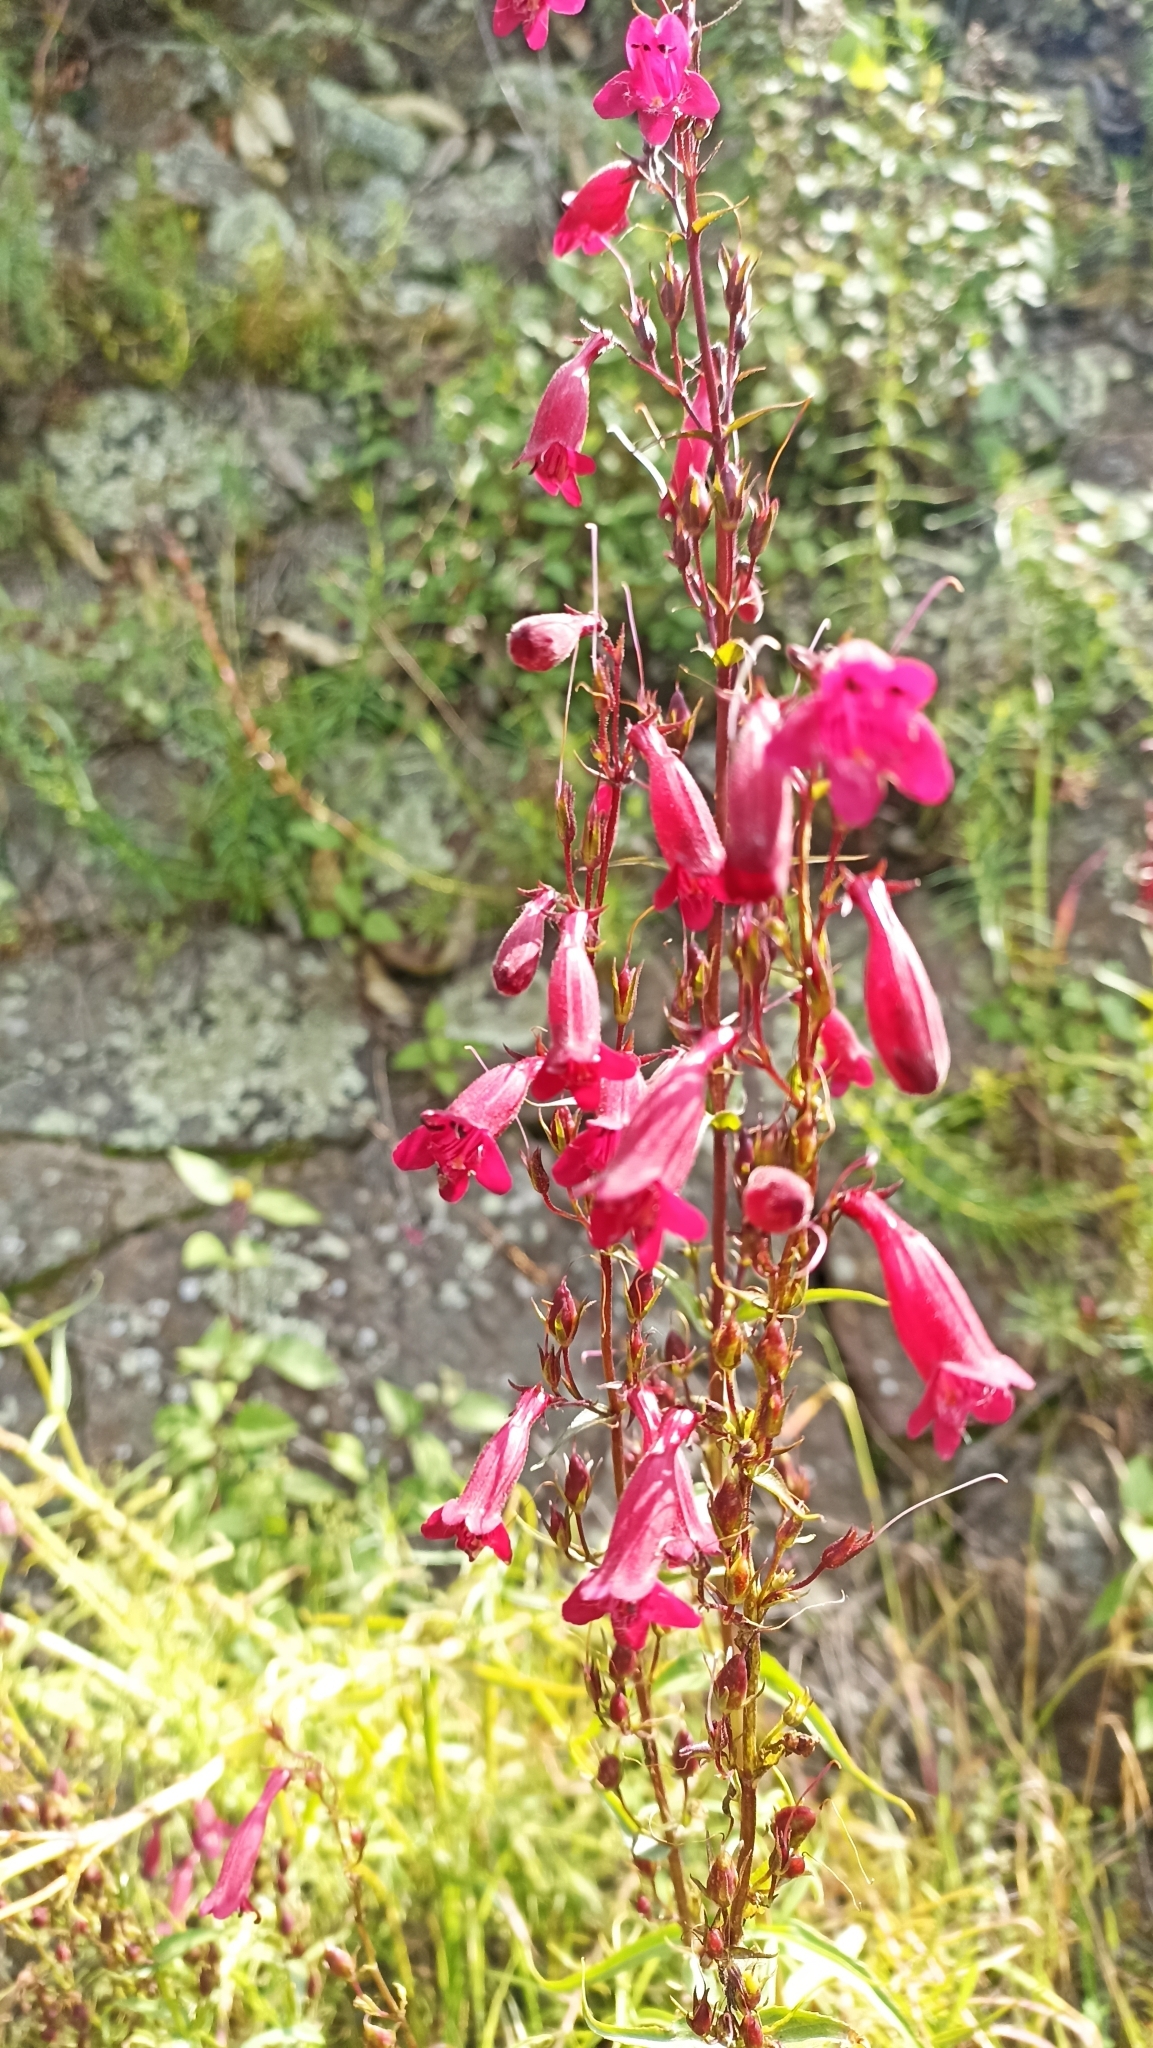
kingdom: Plantae
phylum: Tracheophyta
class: Magnoliopsida
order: Lamiales
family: Plantaginaceae
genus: Penstemon
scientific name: Penstemon roseus
